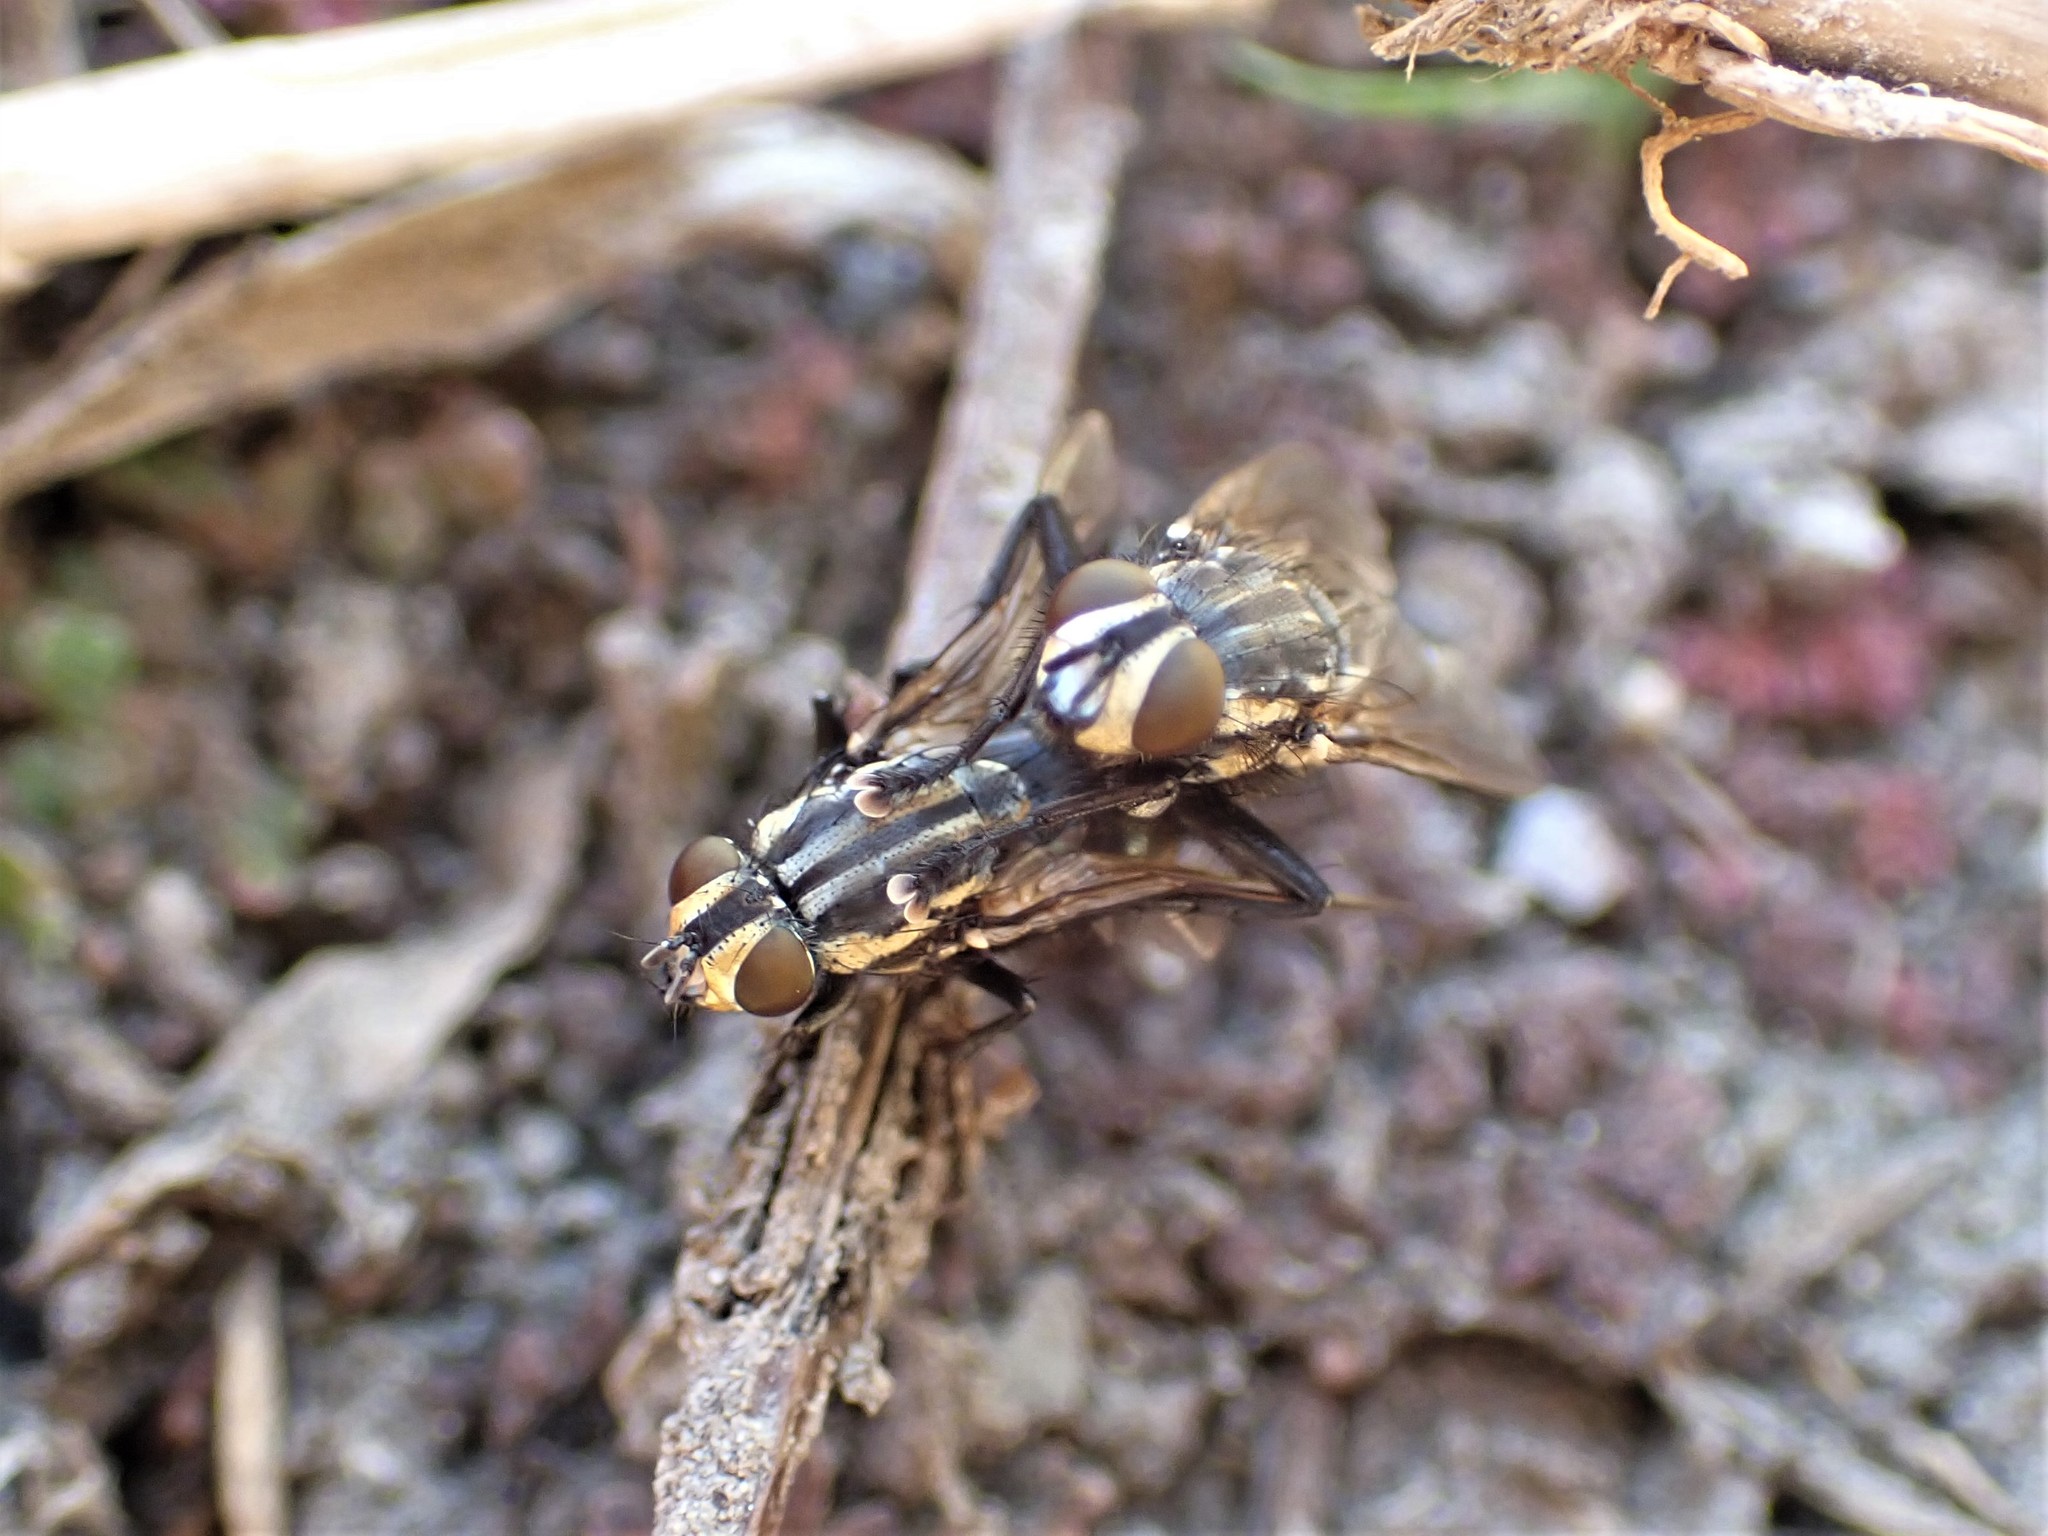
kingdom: Animalia
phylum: Arthropoda
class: Insecta
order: Diptera
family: Sarcophagidae
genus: Oxysarcodexia
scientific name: Oxysarcodexia varia
